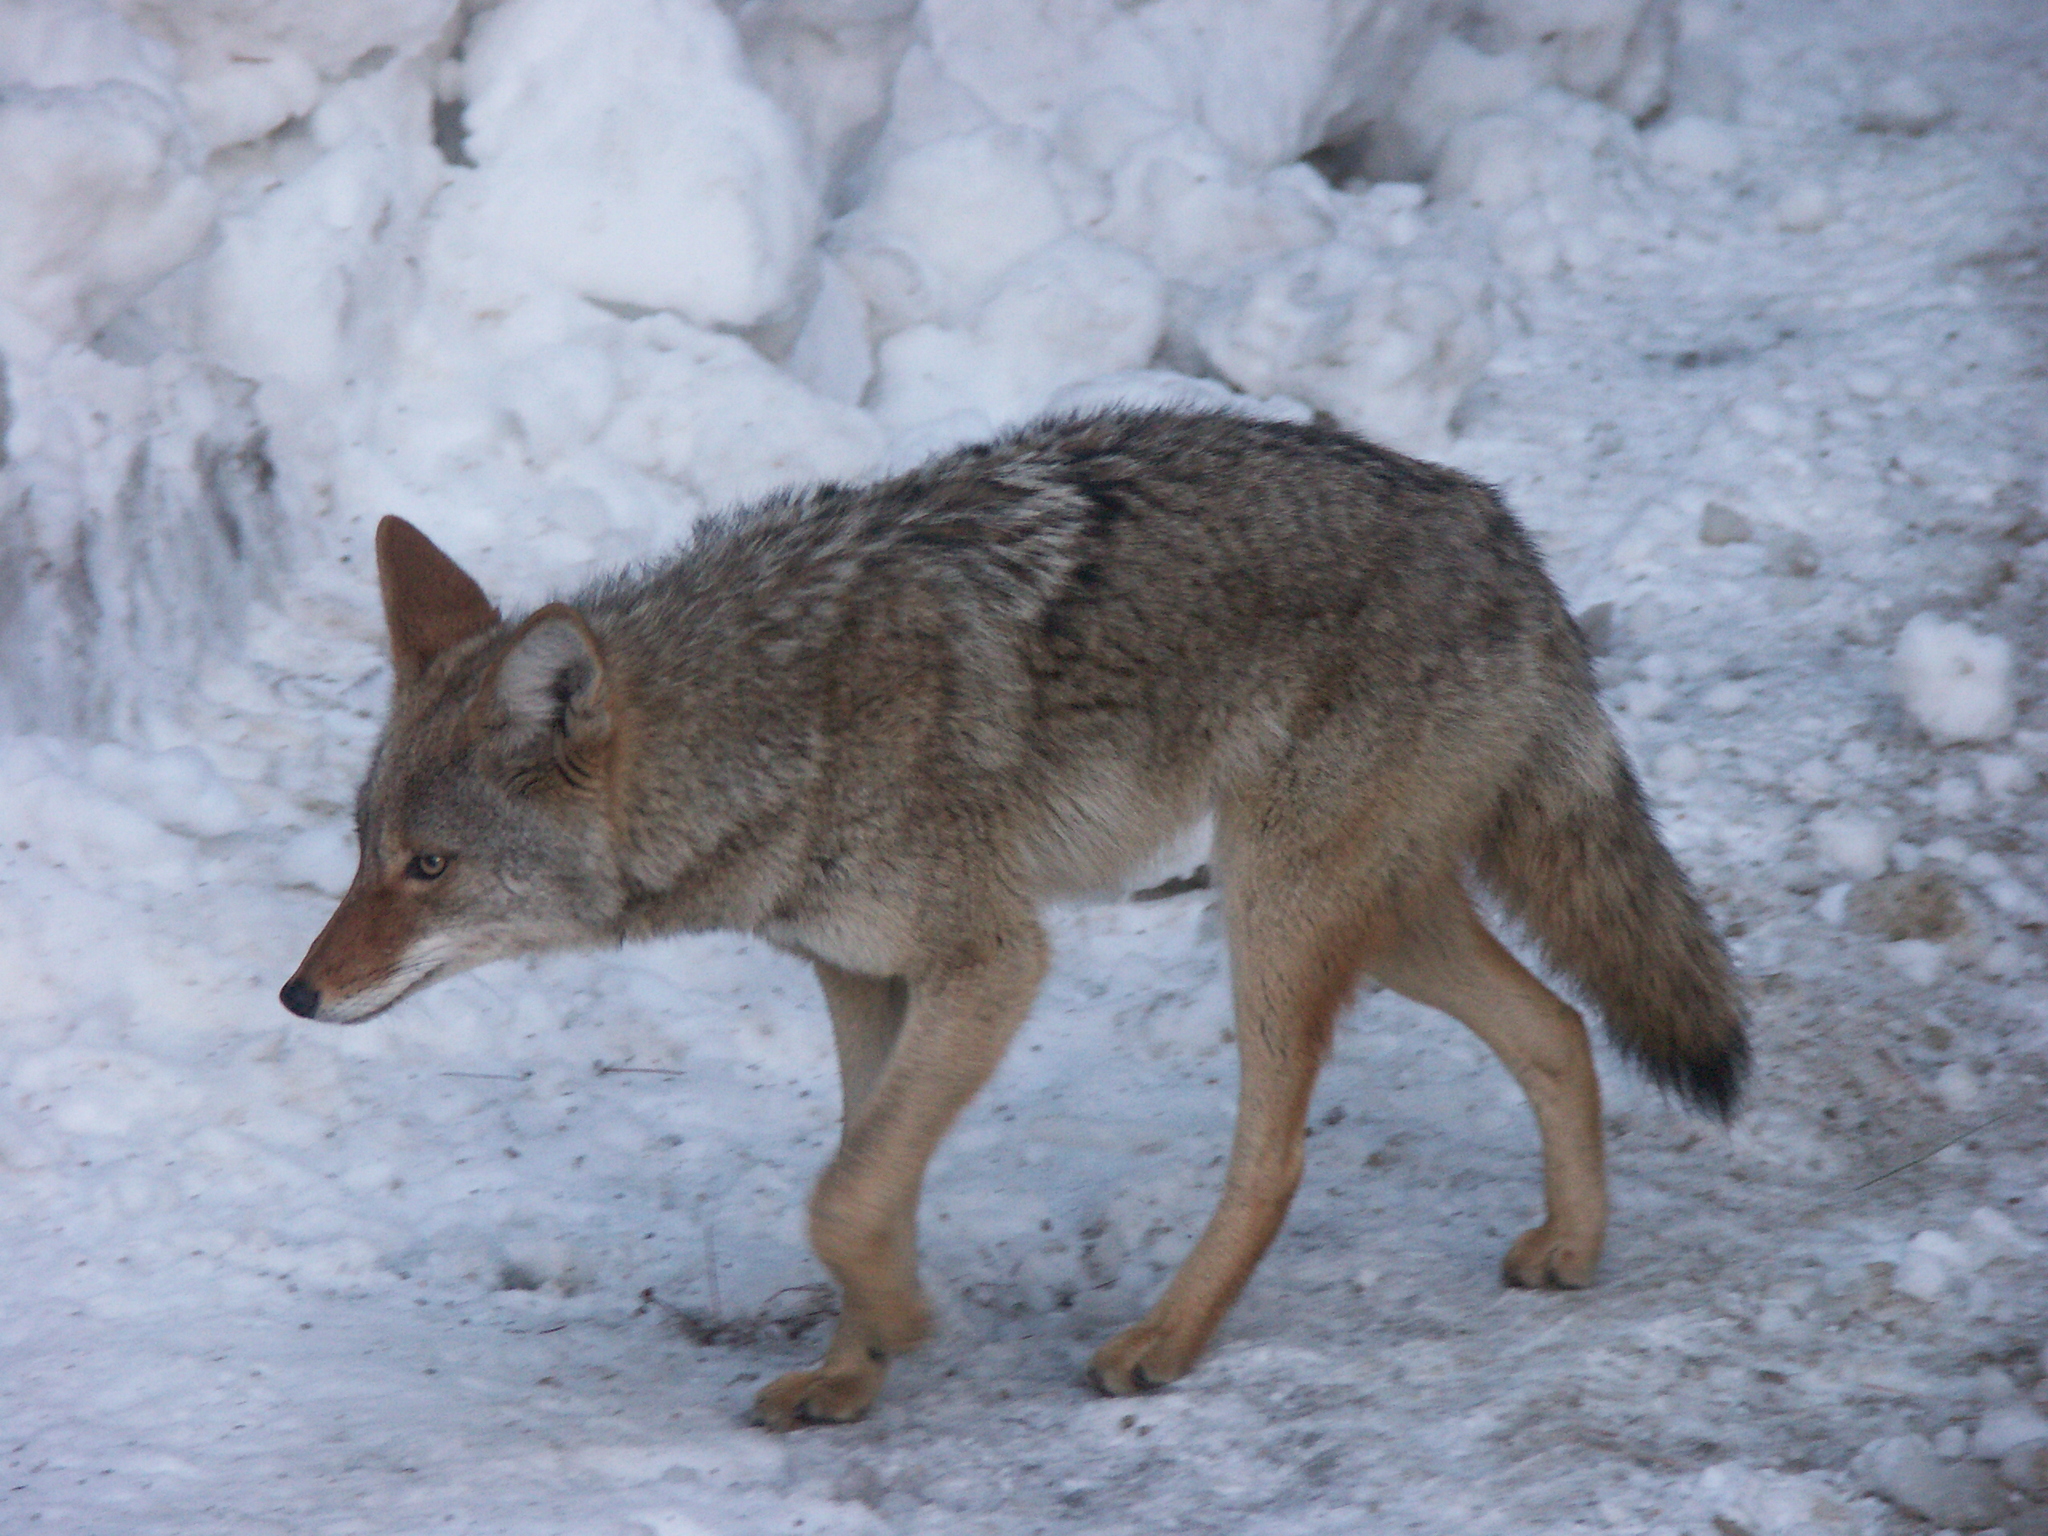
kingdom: Animalia
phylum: Chordata
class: Mammalia
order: Carnivora
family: Canidae
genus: Canis
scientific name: Canis latrans
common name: Coyote
